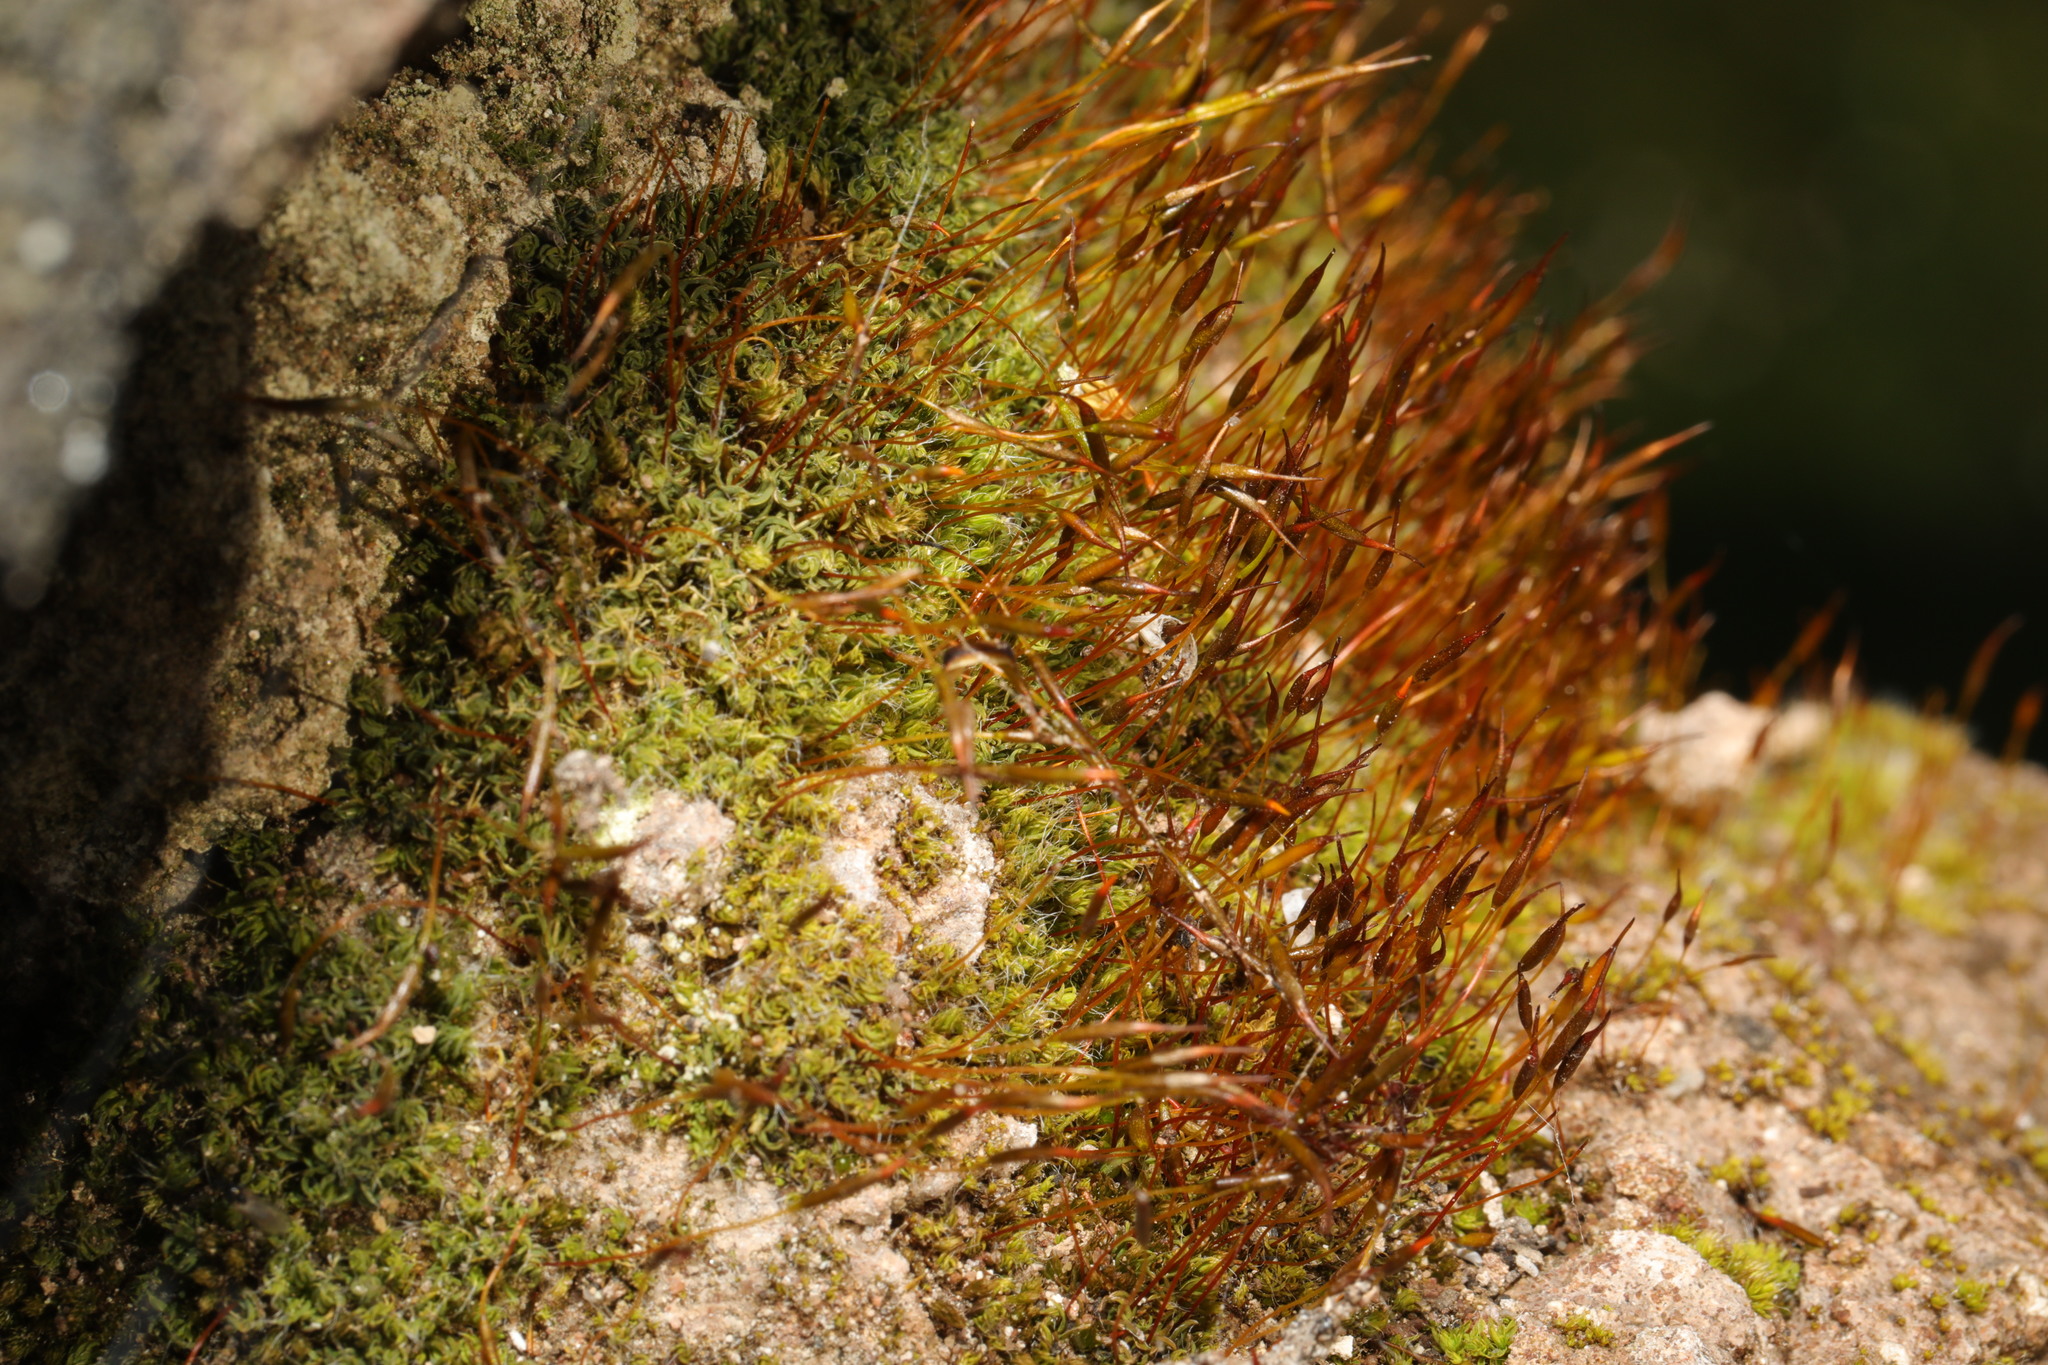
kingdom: Plantae
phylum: Bryophyta
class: Bryopsida
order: Pottiales
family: Pottiaceae
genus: Tortula
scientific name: Tortula muralis
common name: Wall screw-moss
